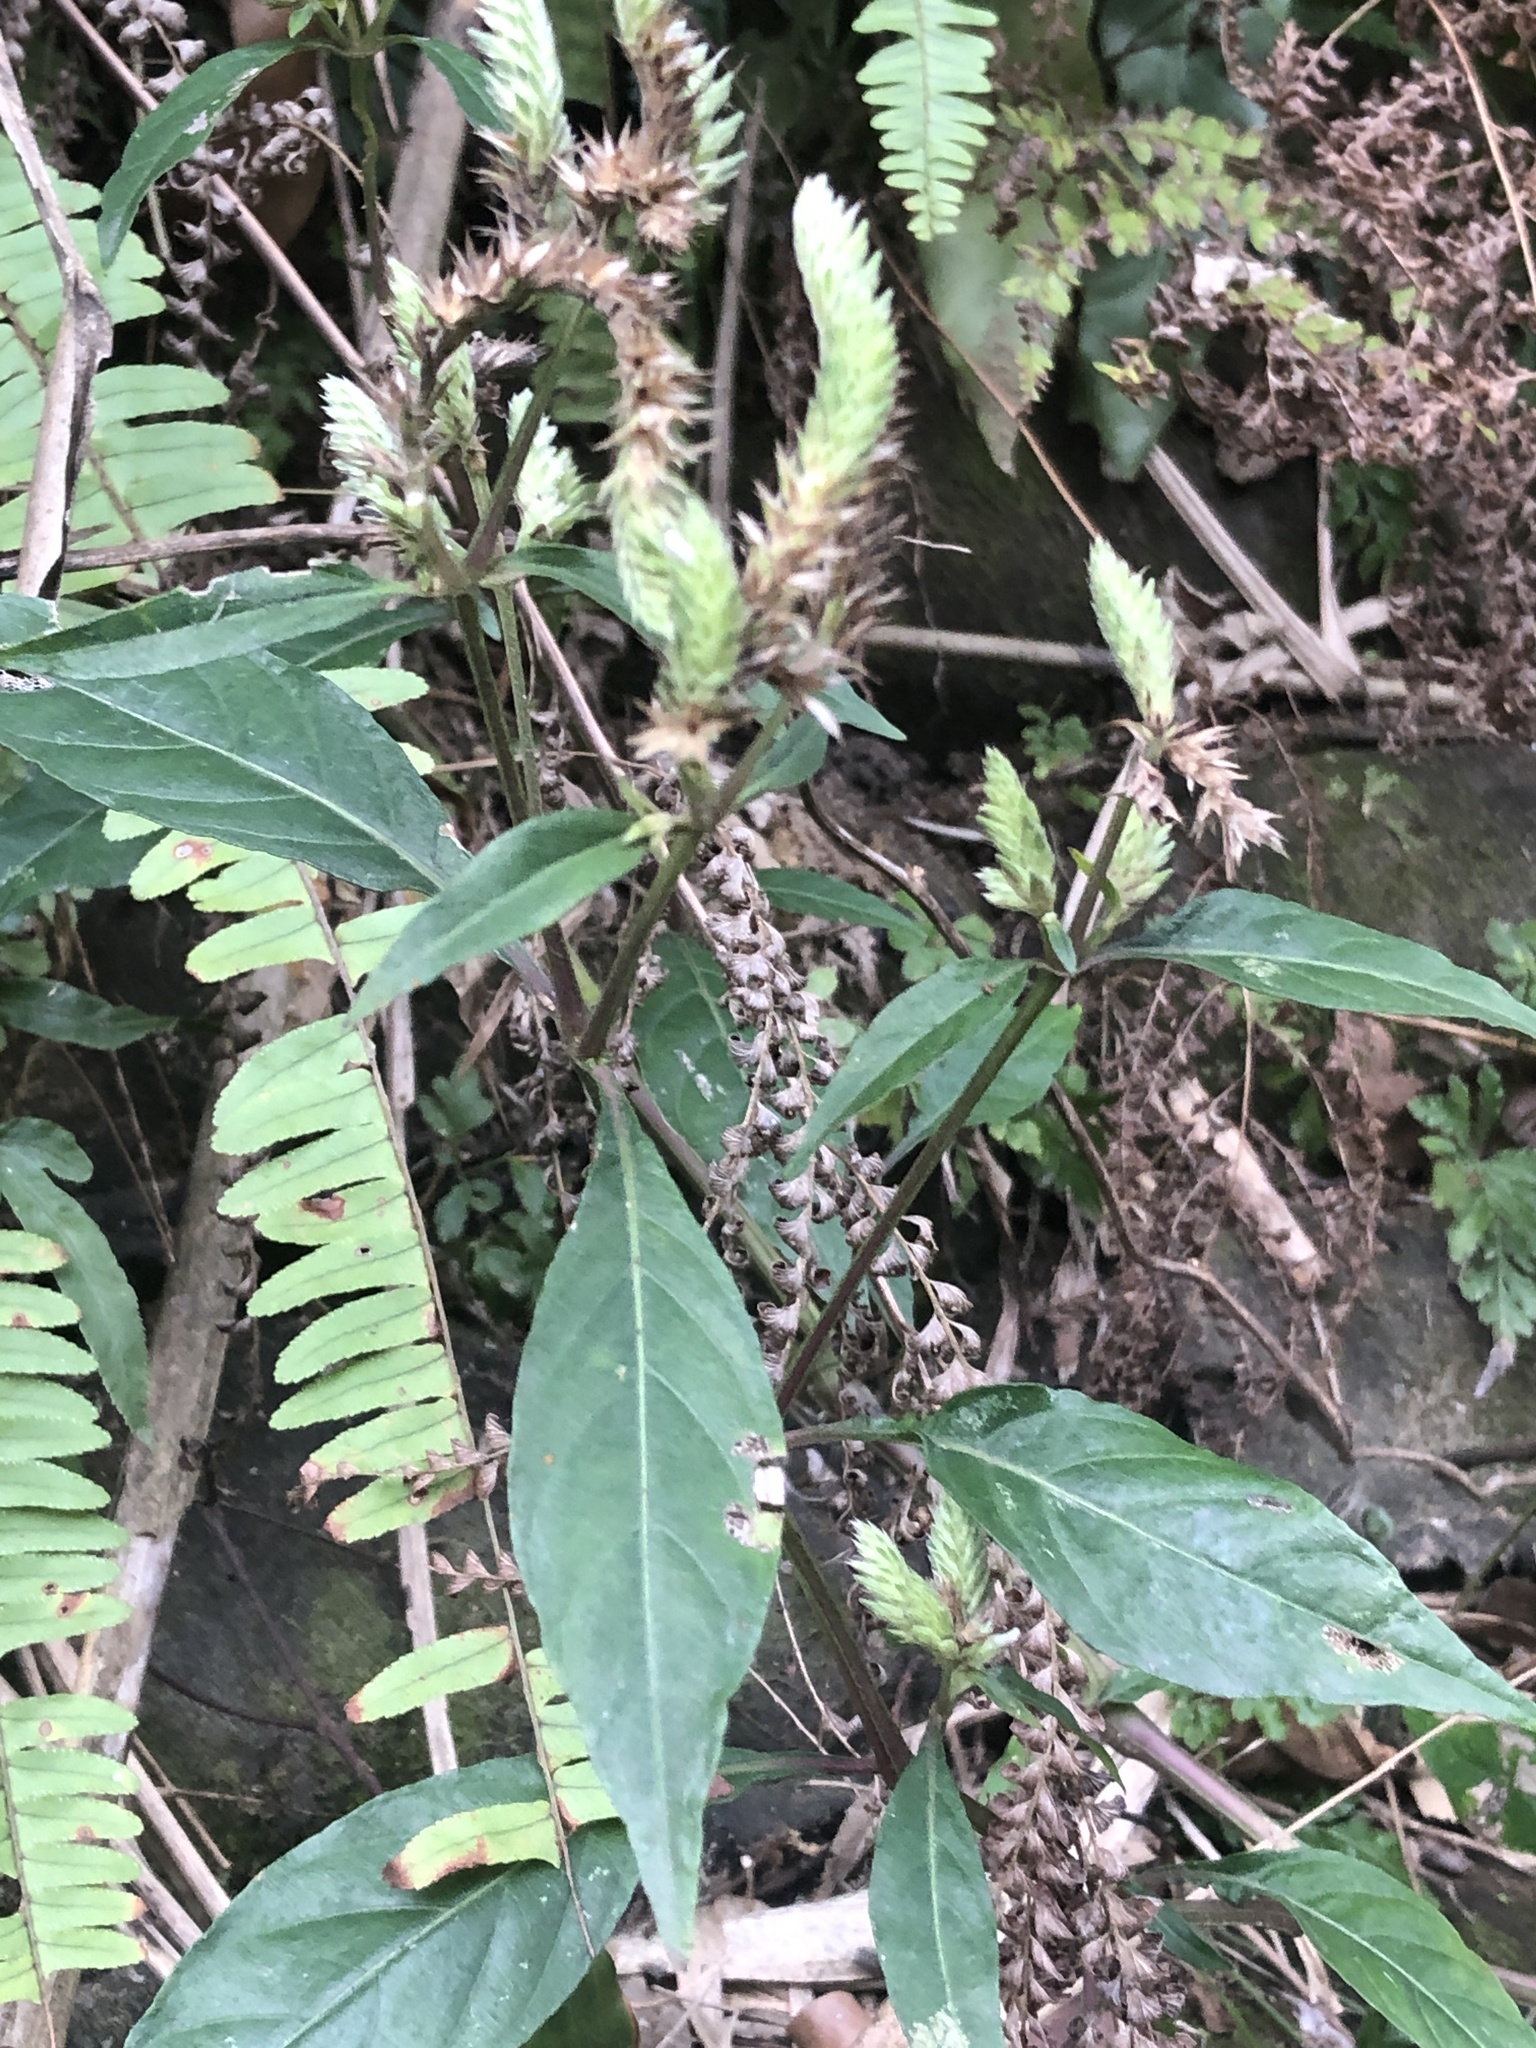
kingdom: Plantae
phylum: Tracheophyta
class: Magnoliopsida
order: Lamiales
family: Acanthaceae
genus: Lepidagathis
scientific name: Lepidagathis formosensis
